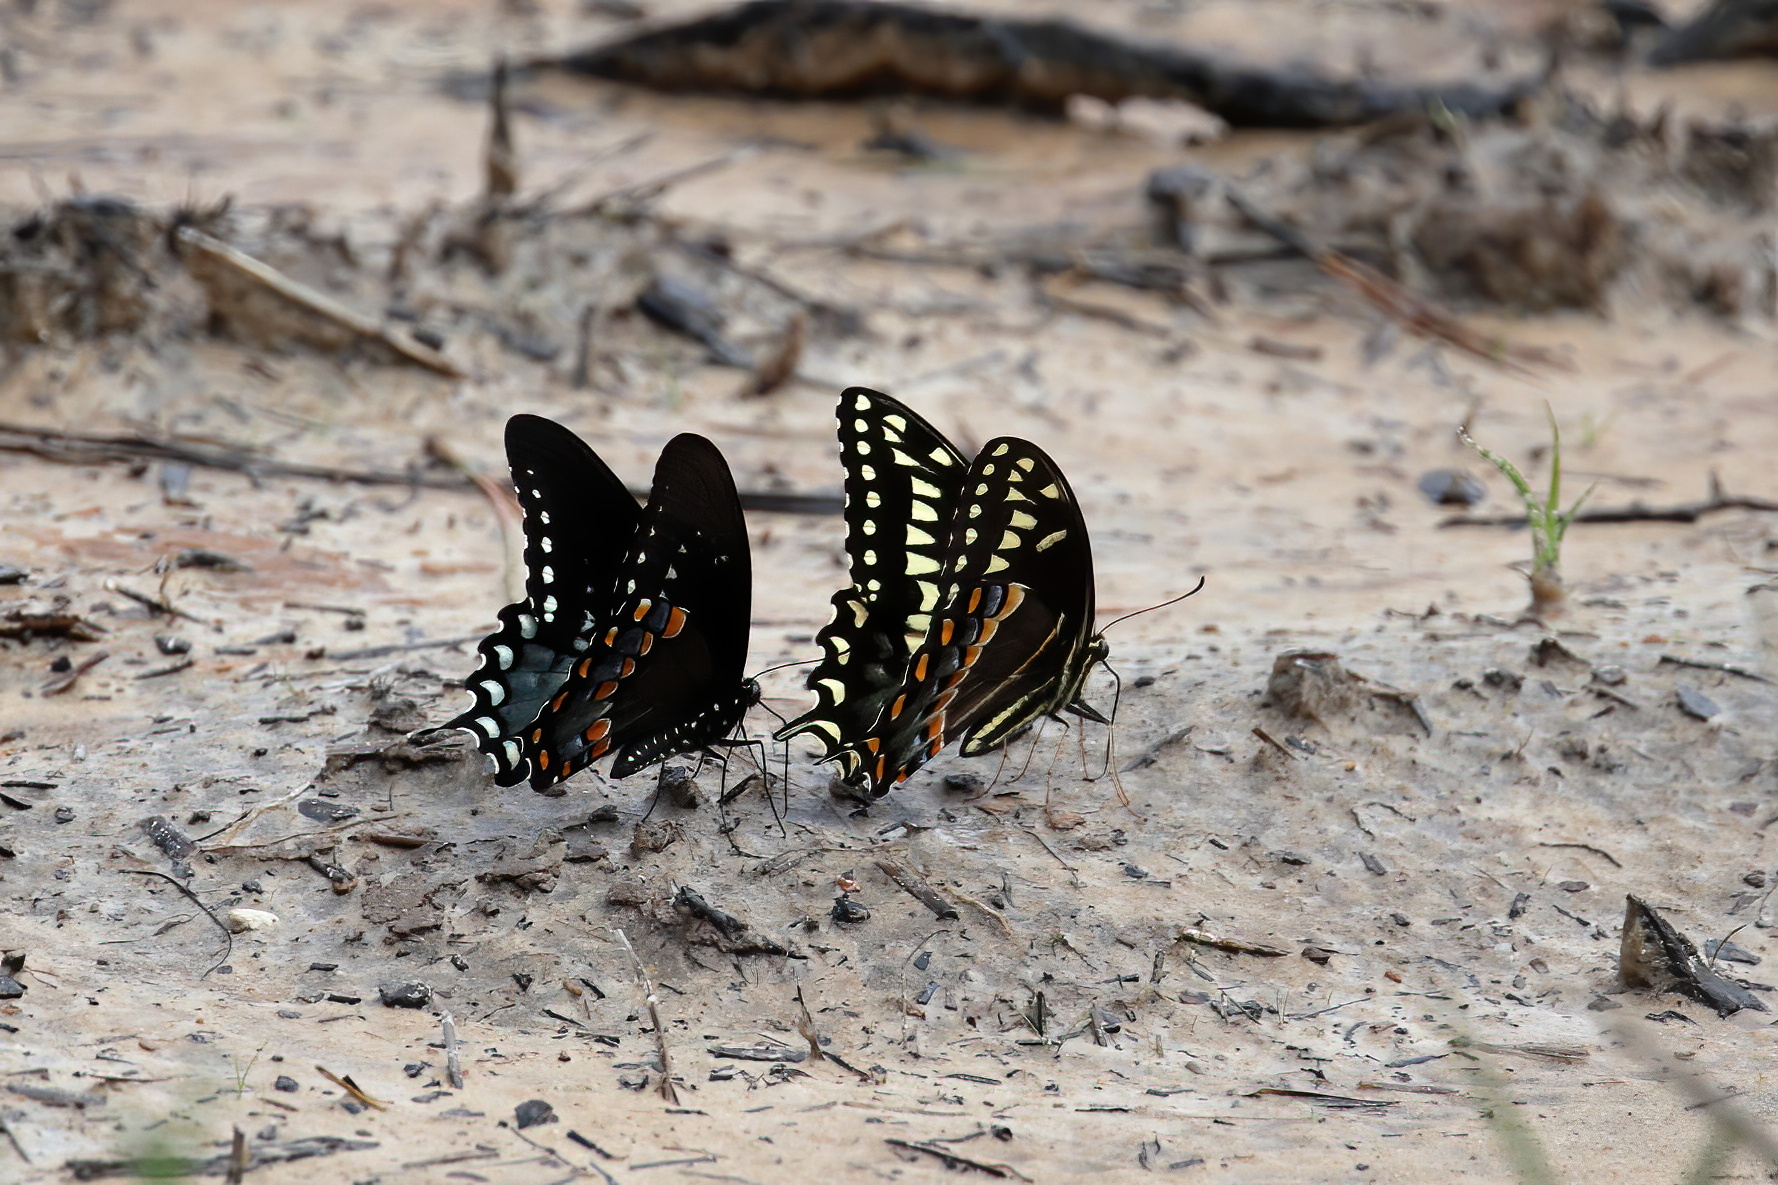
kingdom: Animalia
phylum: Arthropoda
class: Insecta
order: Lepidoptera
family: Papilionidae
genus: Papilio
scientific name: Papilio troilus
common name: Spicebush swallowtail
